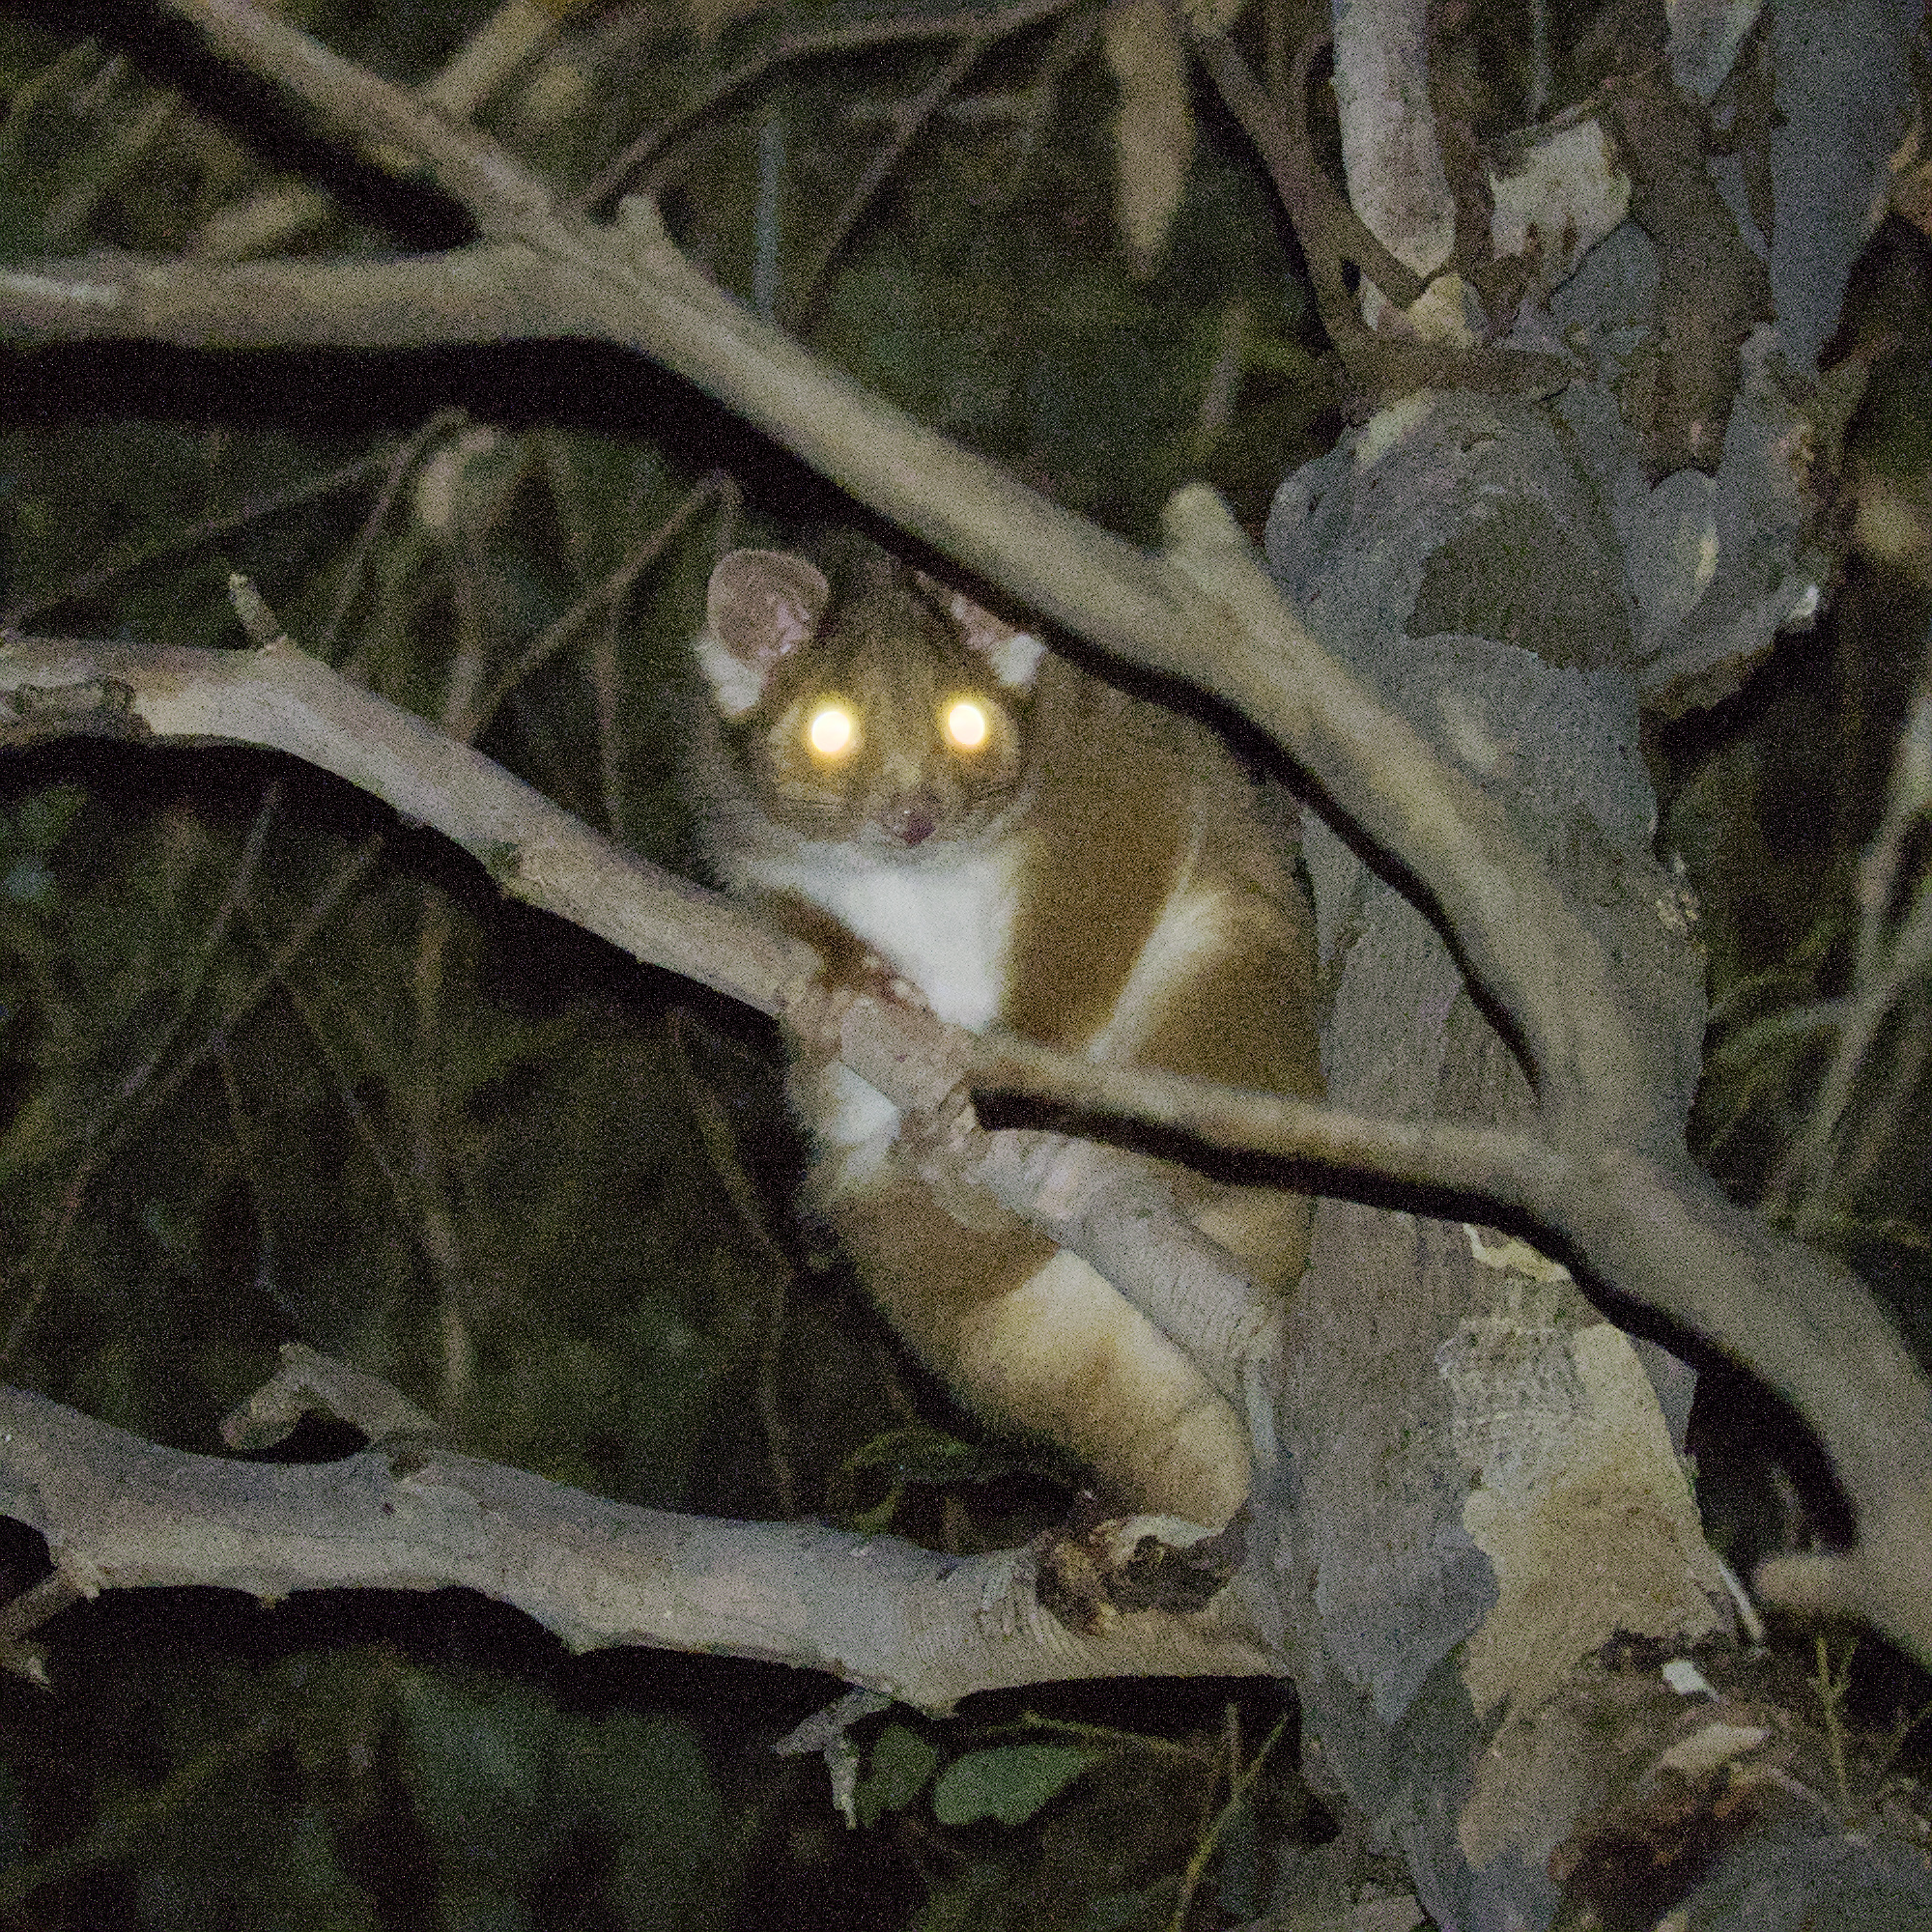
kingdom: Animalia
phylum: Chordata
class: Mammalia
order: Diprotodontia
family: Pseudocheiridae
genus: Pseudocheirus
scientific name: Pseudocheirus peregrinus
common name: Common ringtail possum
